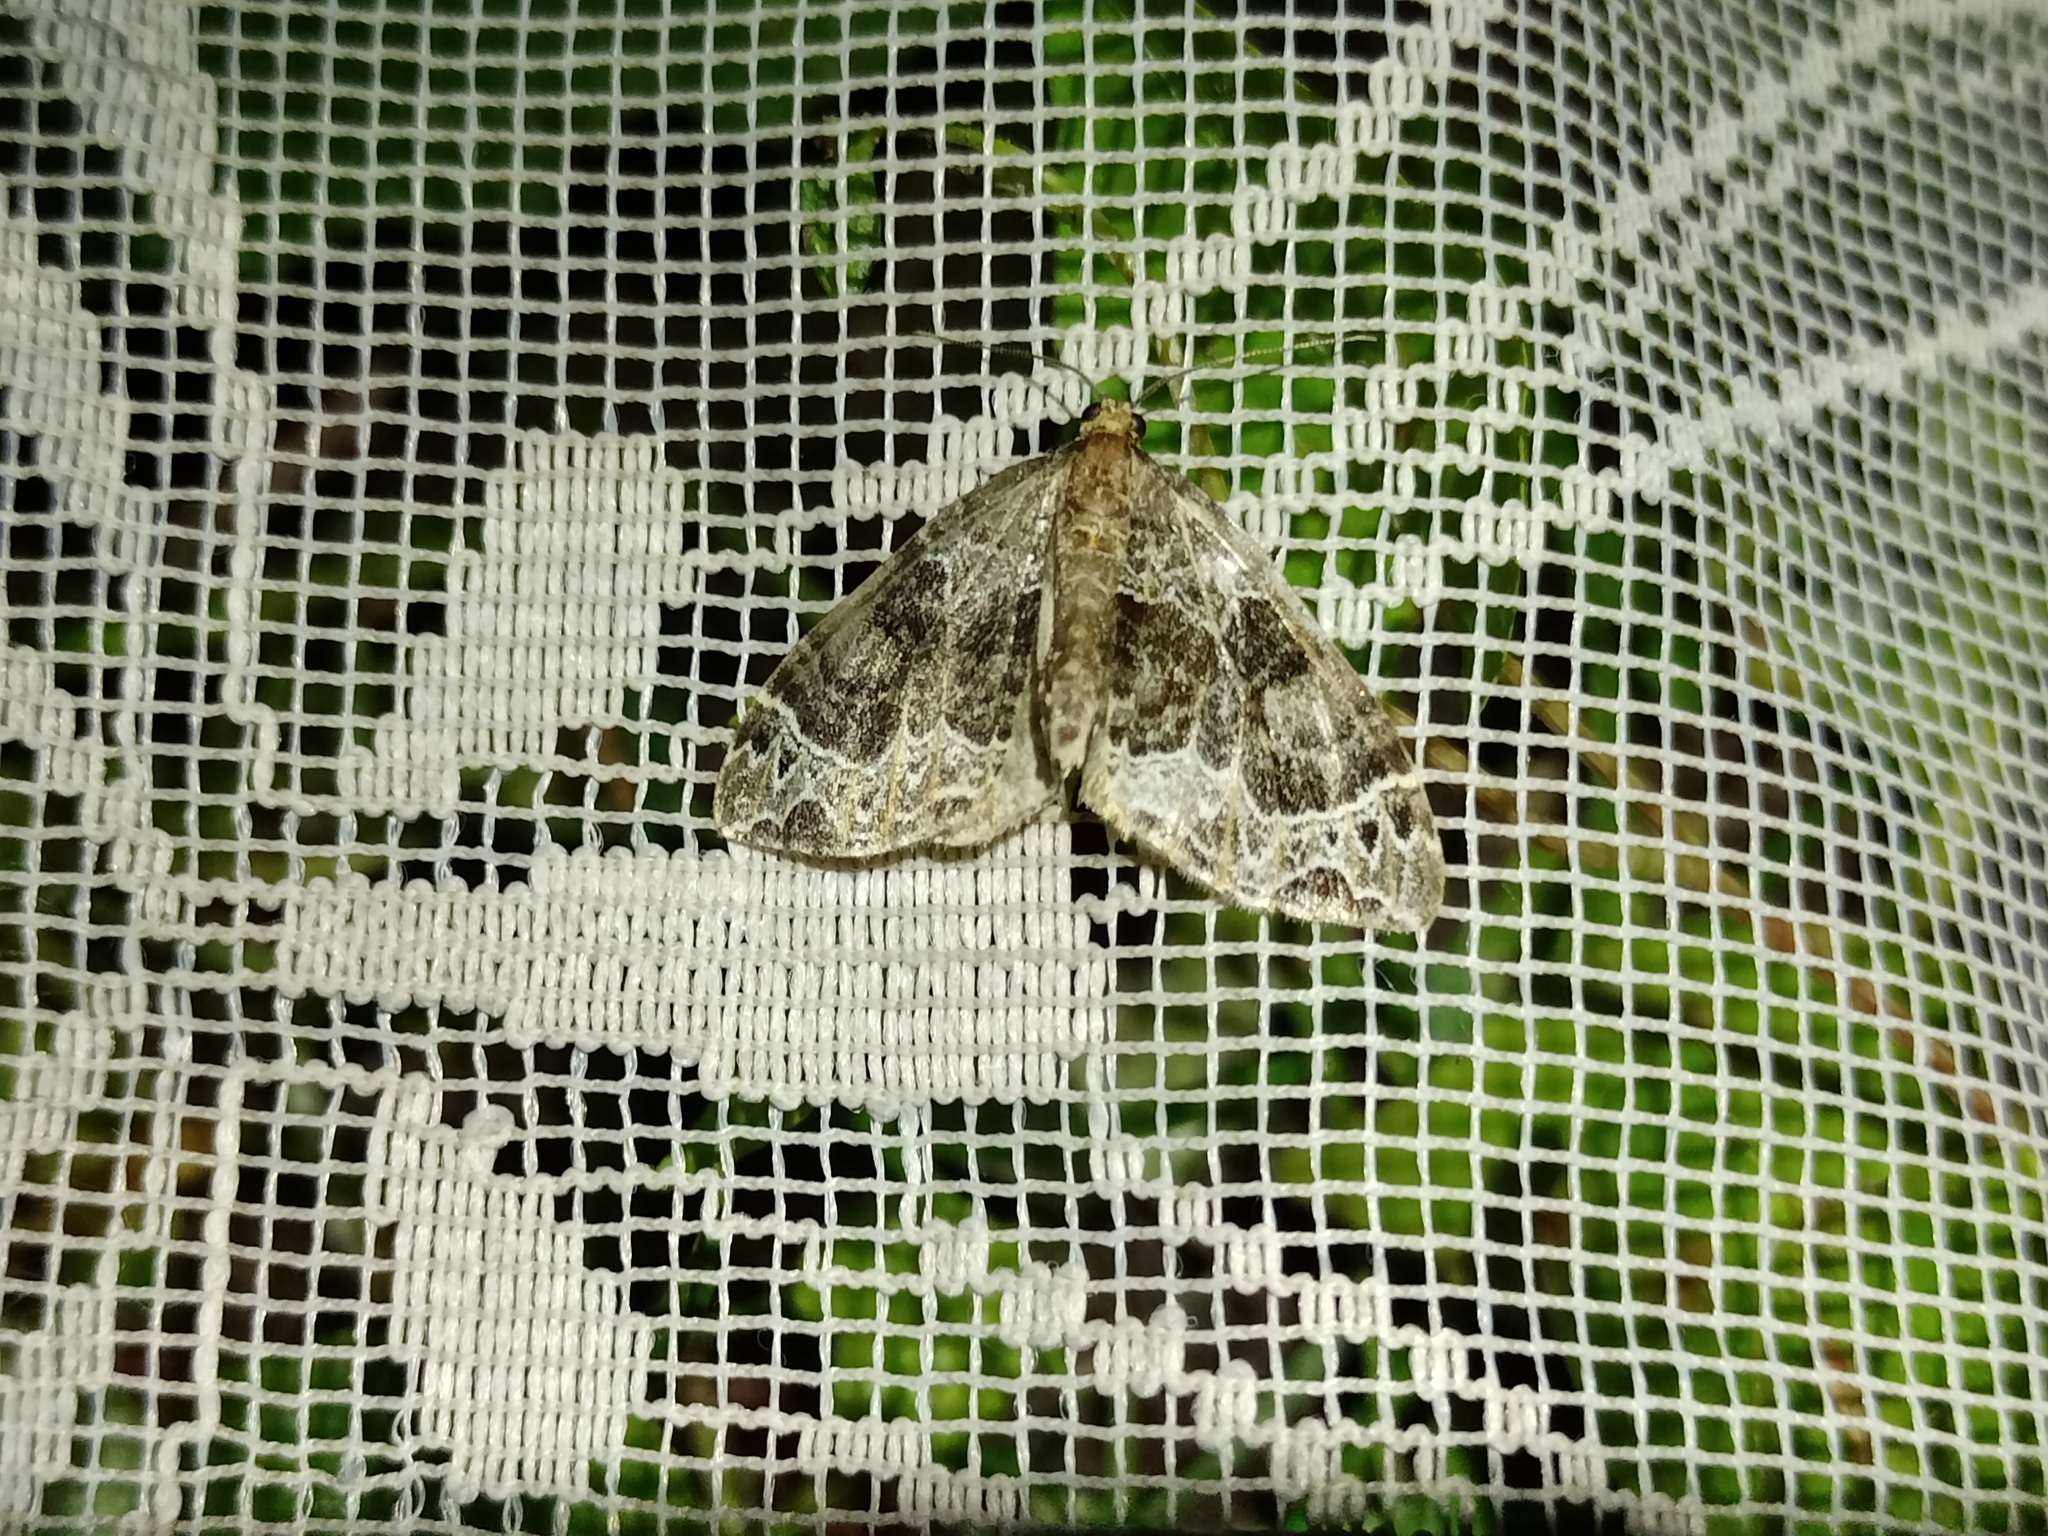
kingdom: Animalia
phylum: Arthropoda
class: Insecta
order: Lepidoptera
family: Geometridae
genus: Ecliptopera
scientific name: Ecliptopera silaceata
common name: Small phoenix
